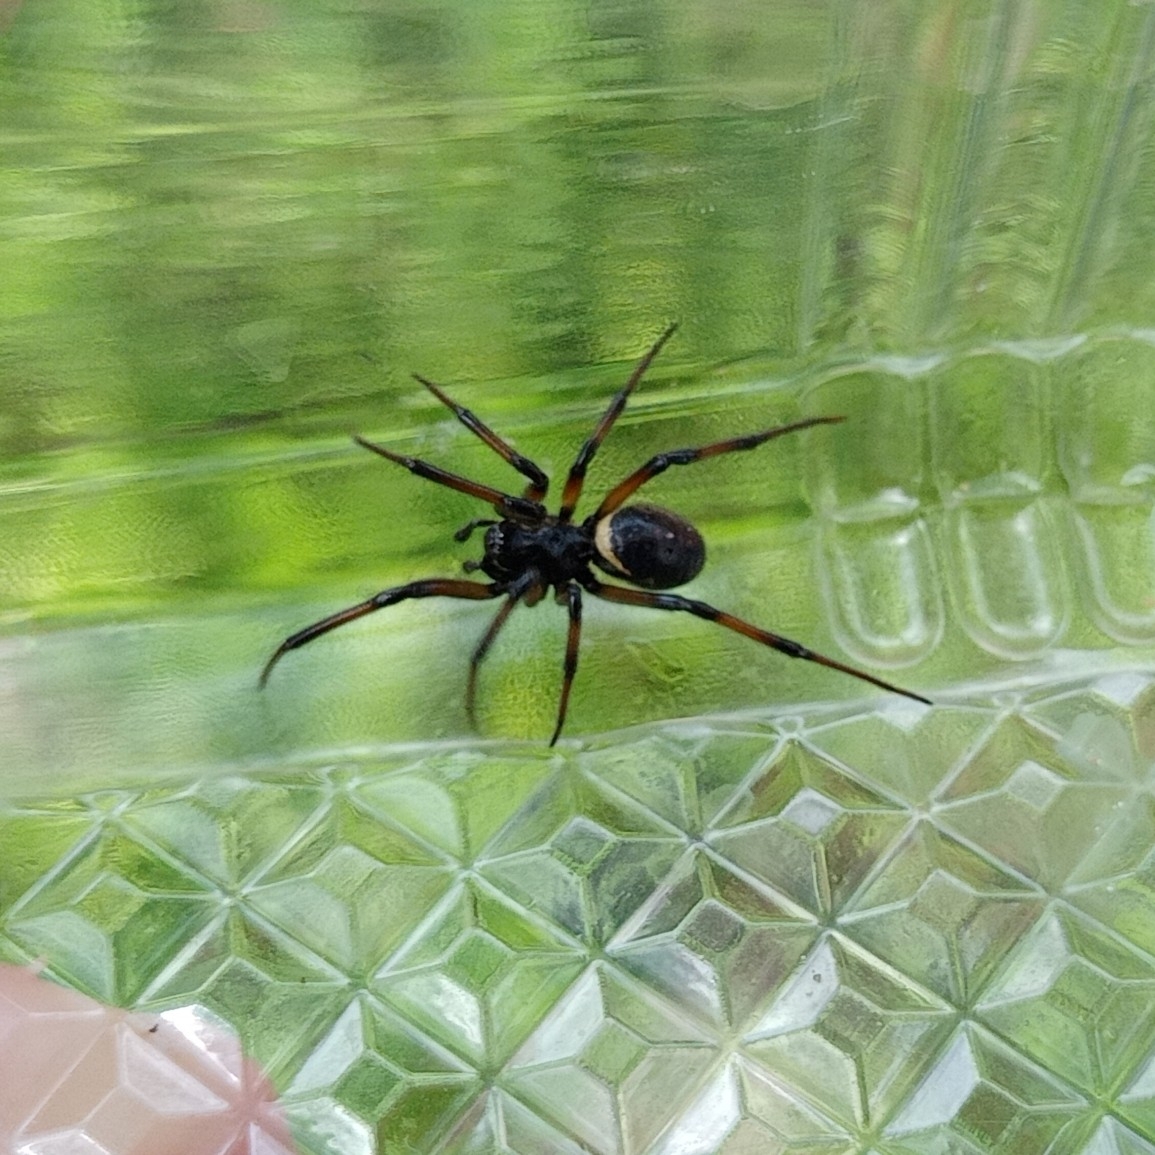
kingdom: Animalia
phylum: Arthropoda
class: Arachnida
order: Araneae
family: Theridiidae
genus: Steatoda
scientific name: Steatoda paykulliana
